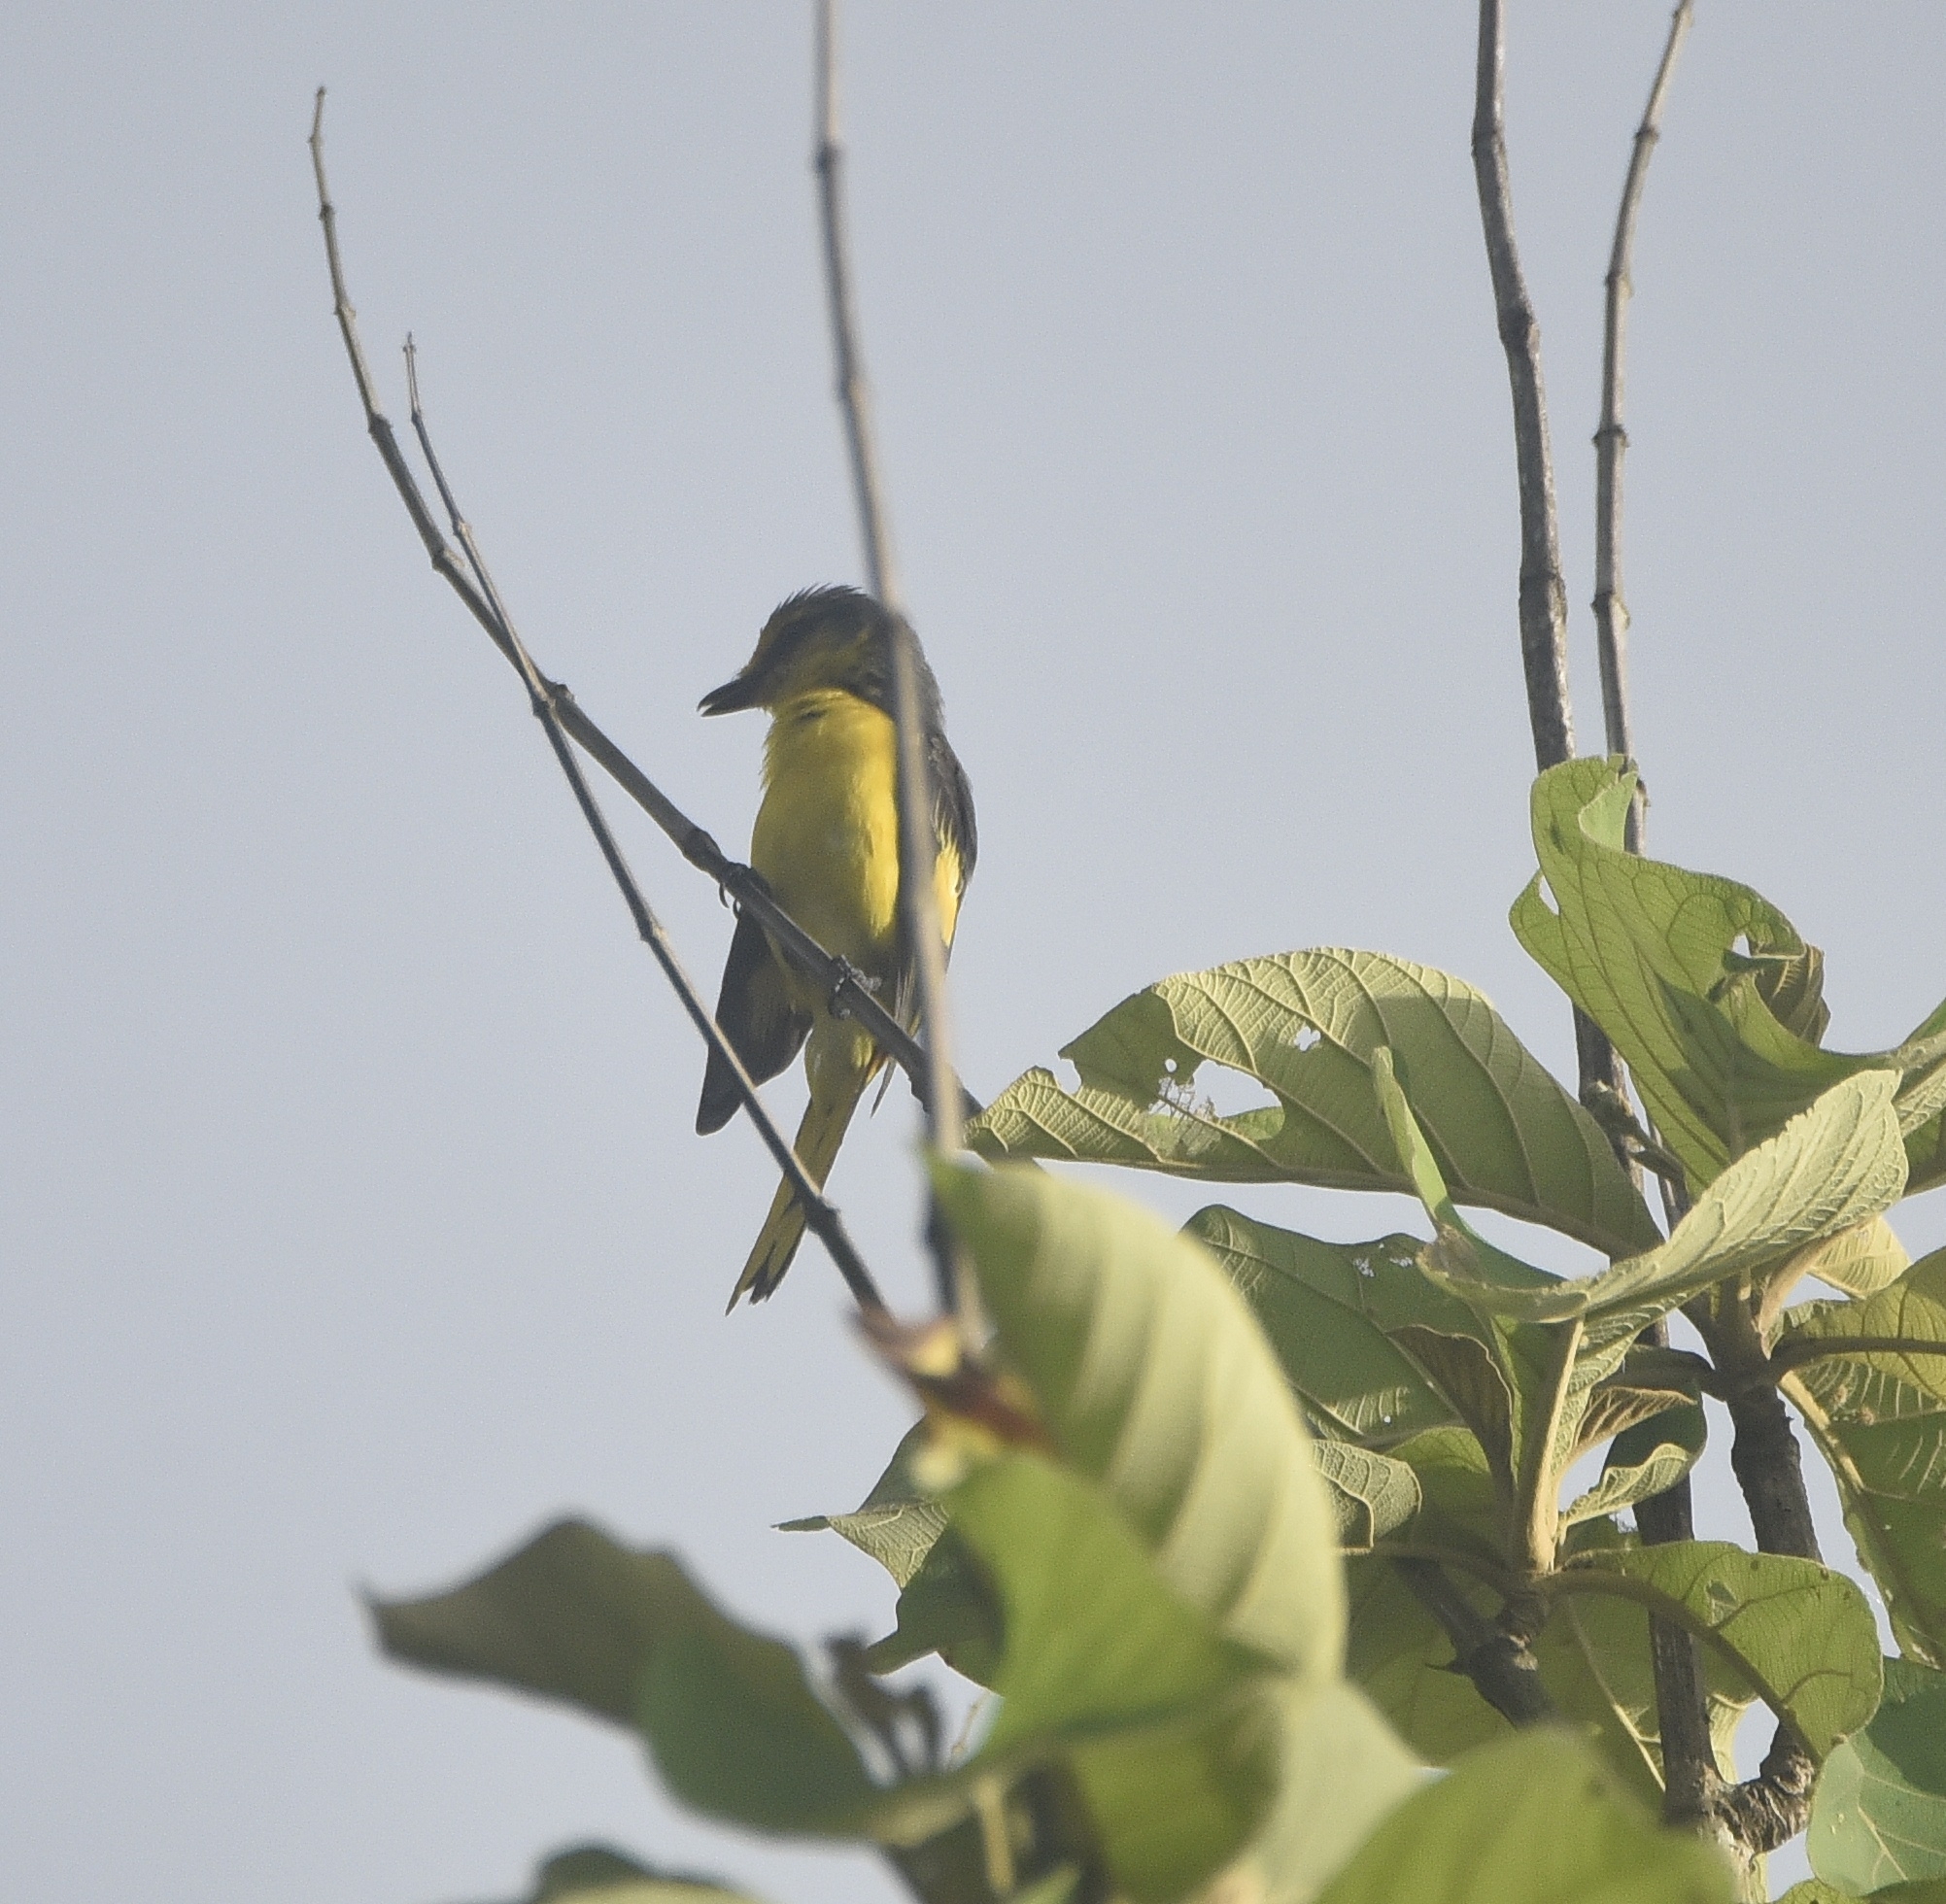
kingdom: Animalia
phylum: Chordata
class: Aves
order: Passeriformes
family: Campephagidae
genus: Pericrocotus
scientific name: Pericrocotus flammeus
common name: Orange minivet
